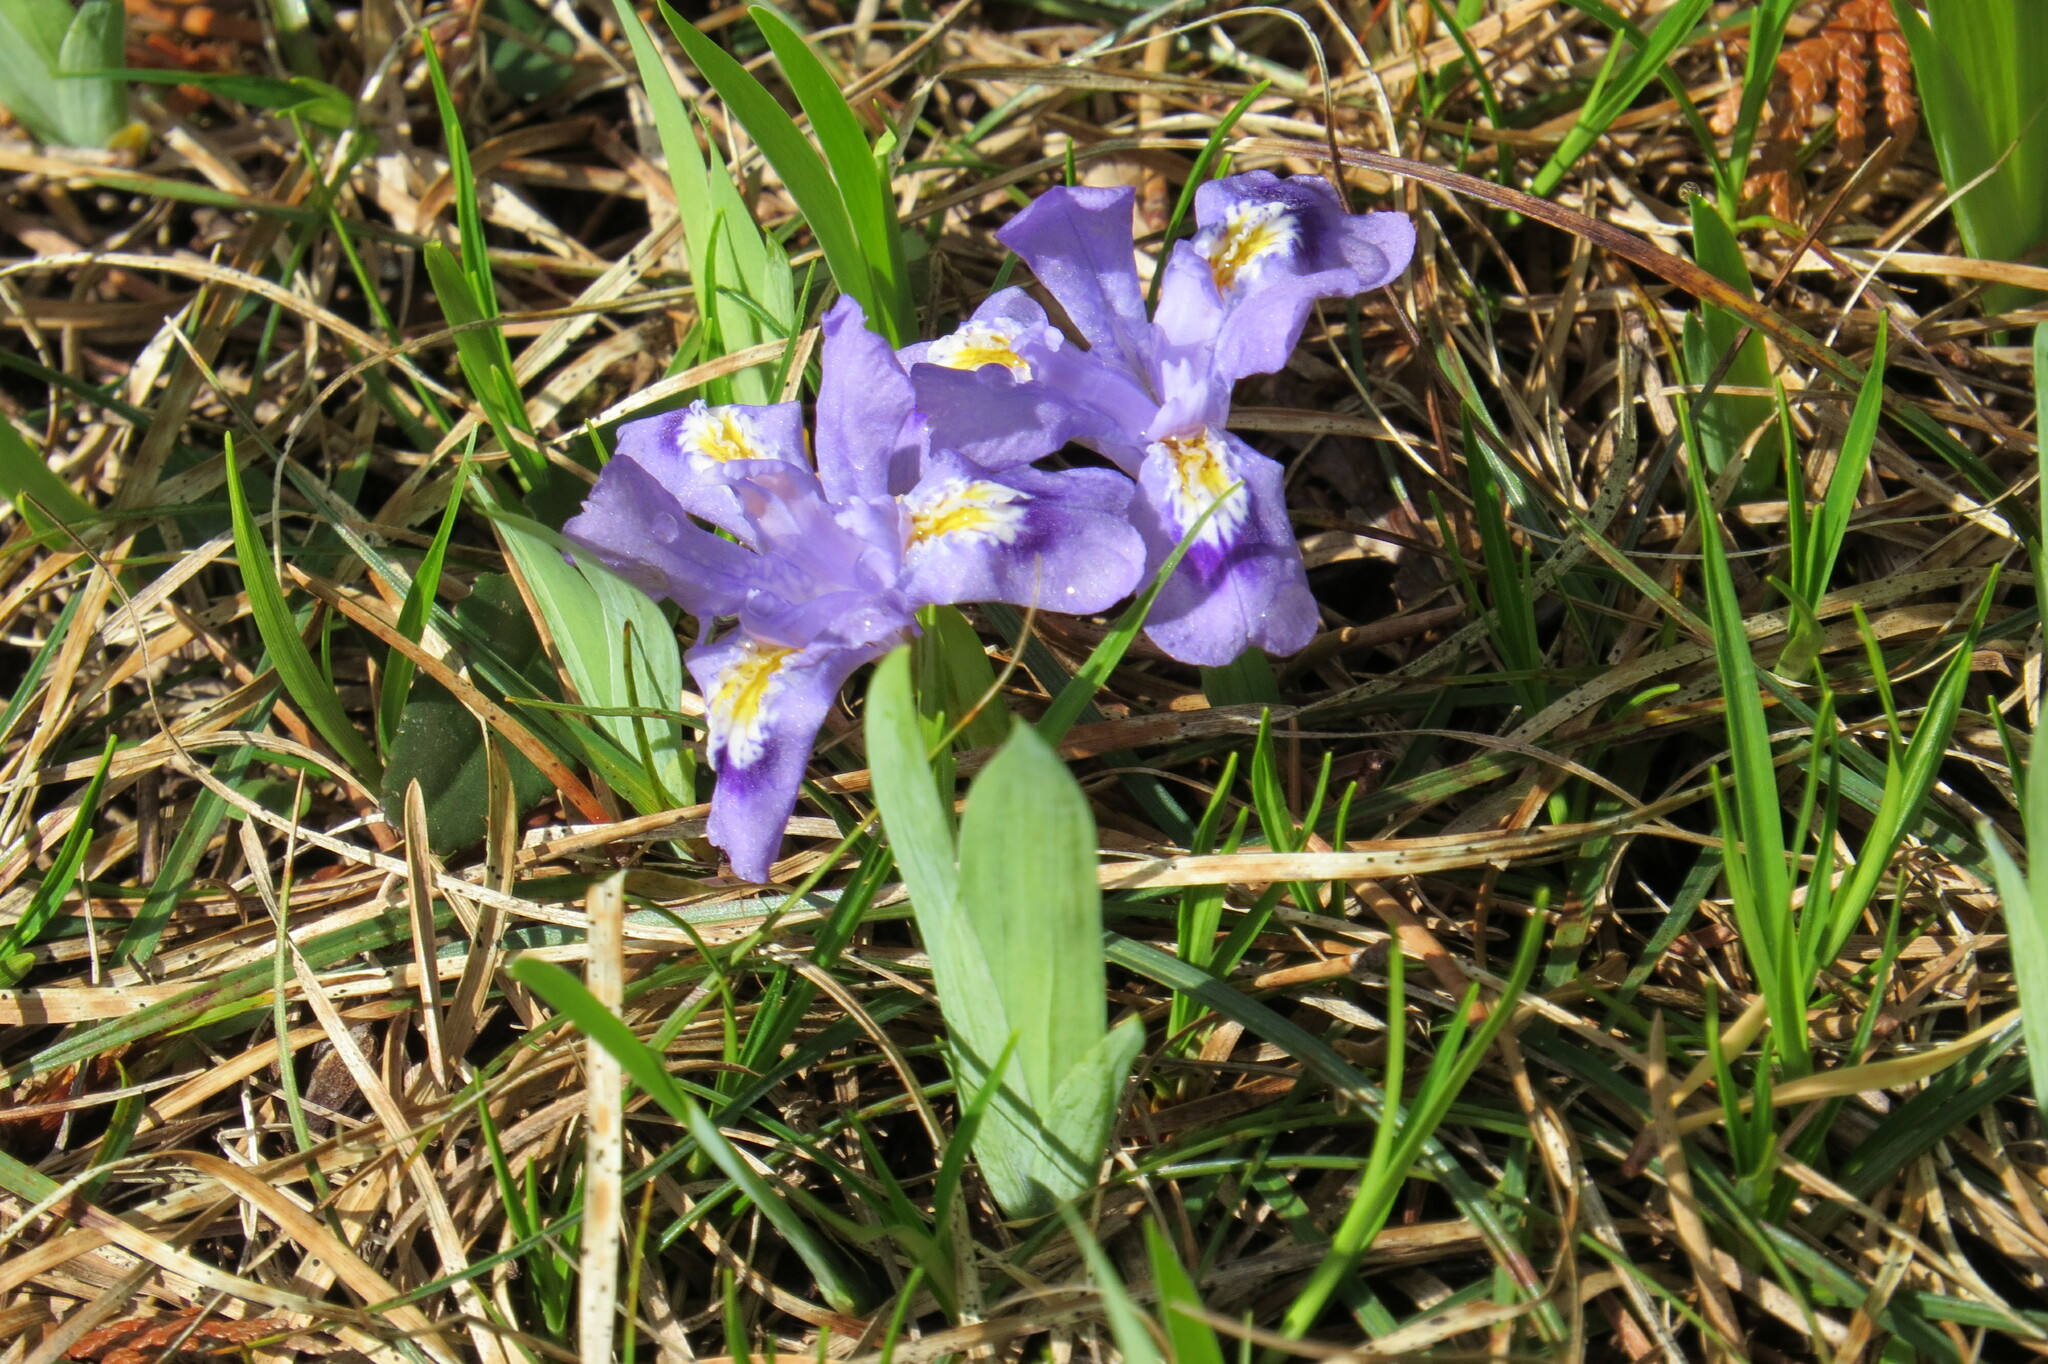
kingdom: Plantae
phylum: Tracheophyta
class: Liliopsida
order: Asparagales
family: Iridaceae
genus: Iris
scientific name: Iris lacustris
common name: Dwarf lake iris
